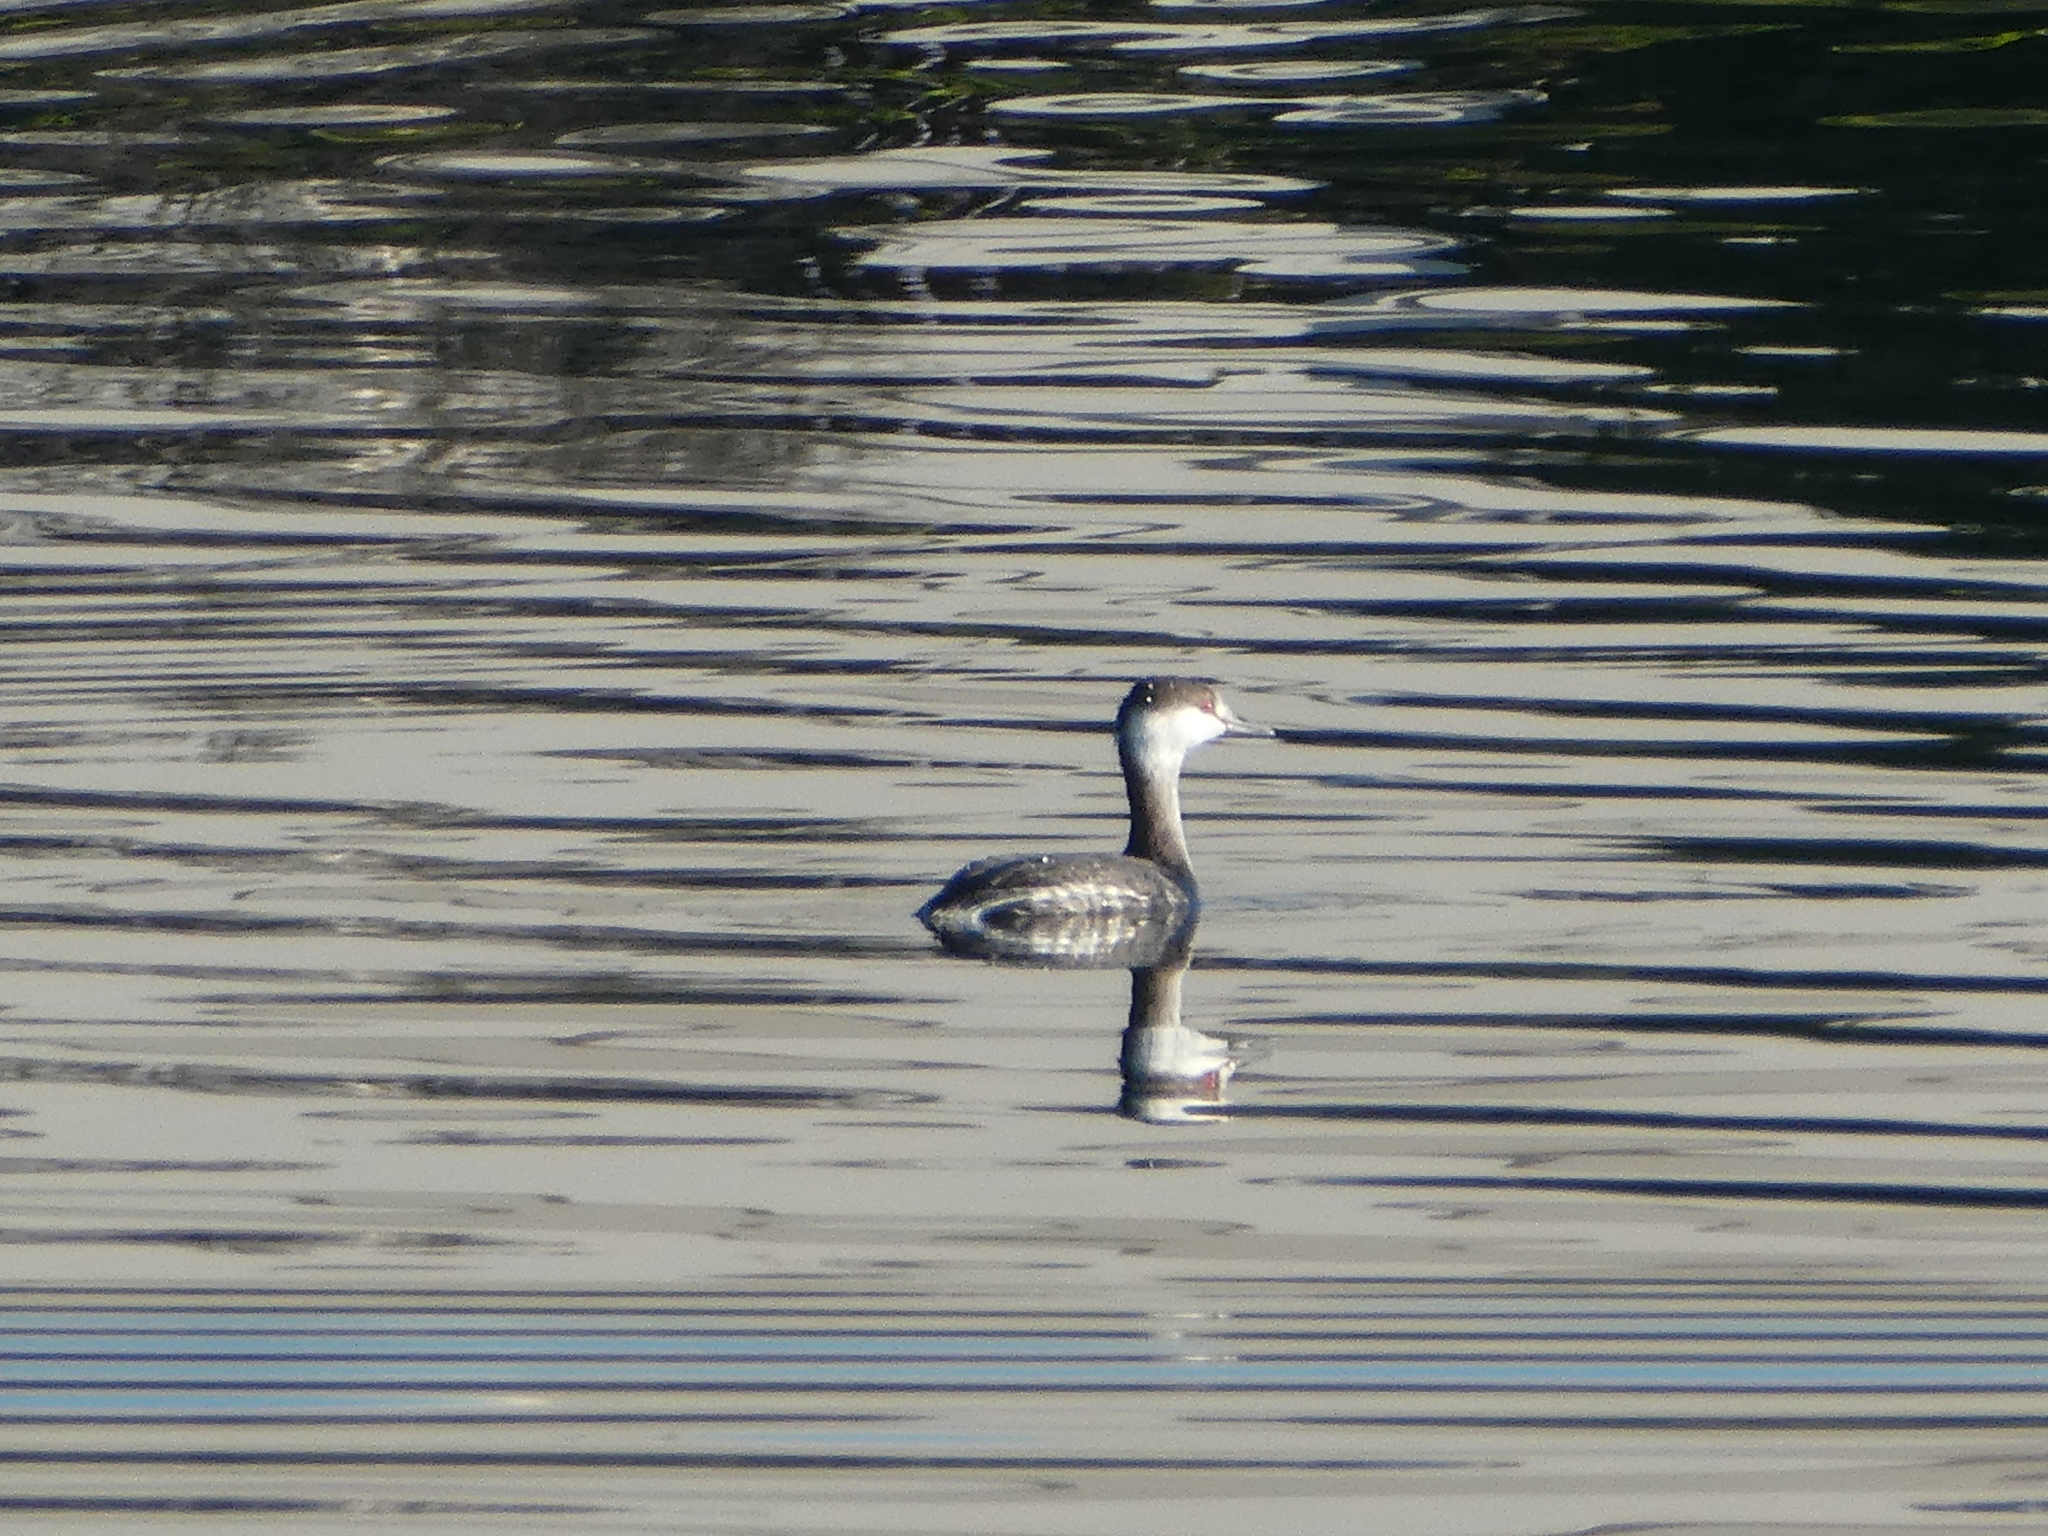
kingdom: Animalia
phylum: Chordata
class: Aves
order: Podicipediformes
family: Podicipedidae
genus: Podiceps
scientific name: Podiceps auritus
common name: Horned grebe
